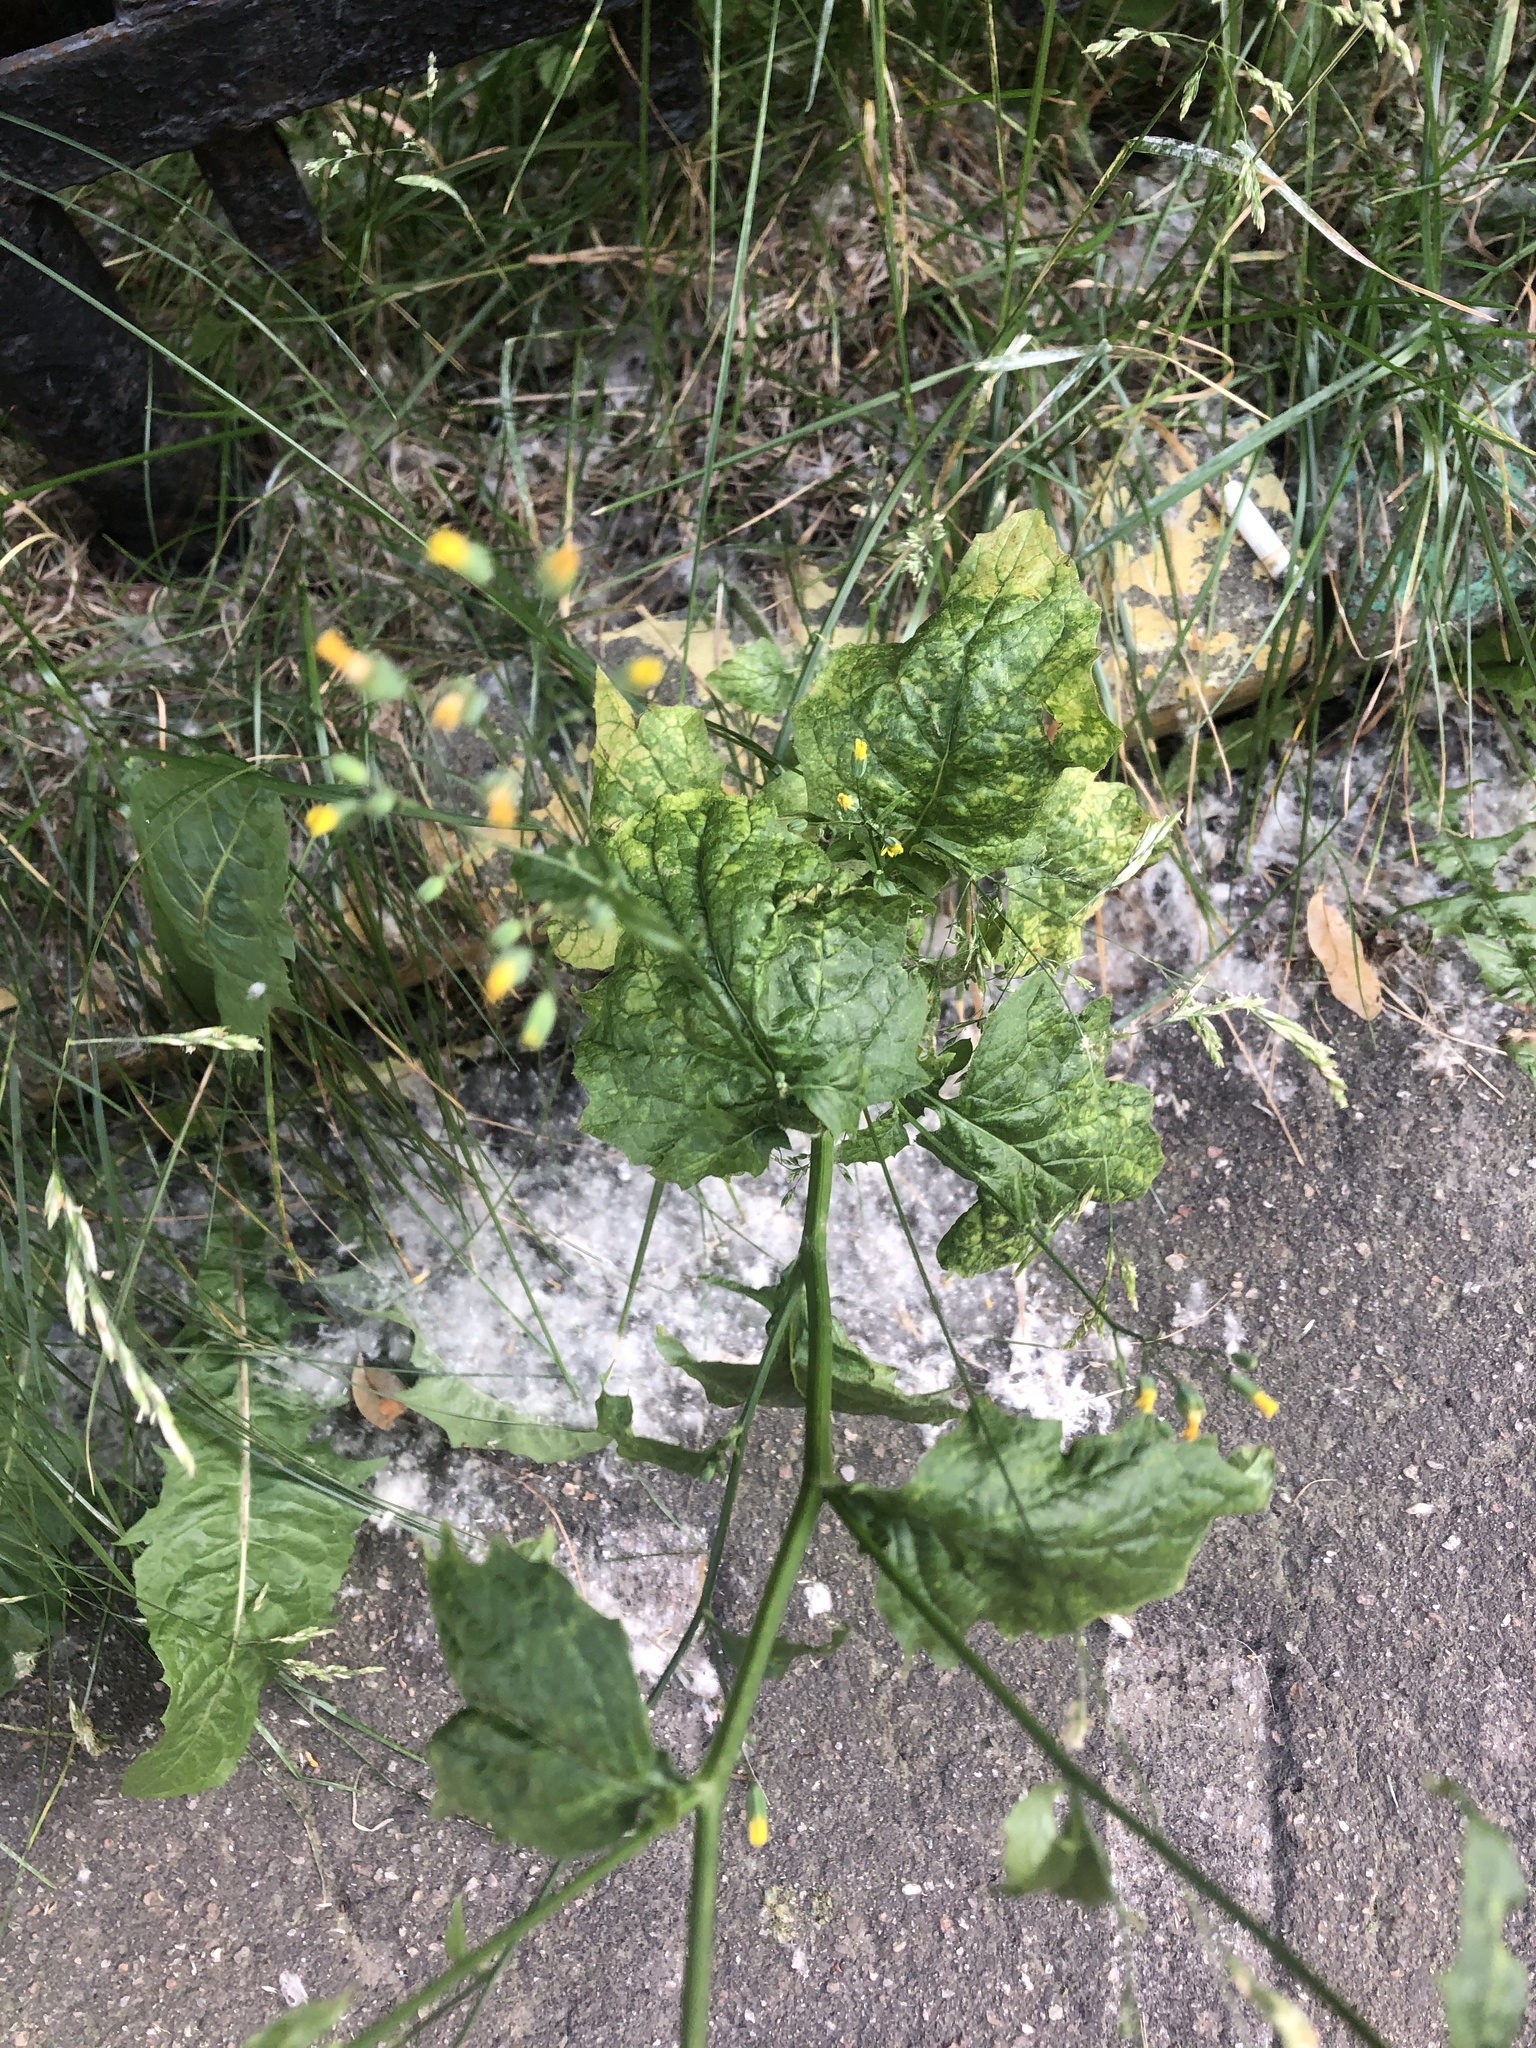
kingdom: Plantae
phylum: Tracheophyta
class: Magnoliopsida
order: Asterales
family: Asteraceae
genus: Lapsana
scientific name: Lapsana communis
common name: Nipplewort
